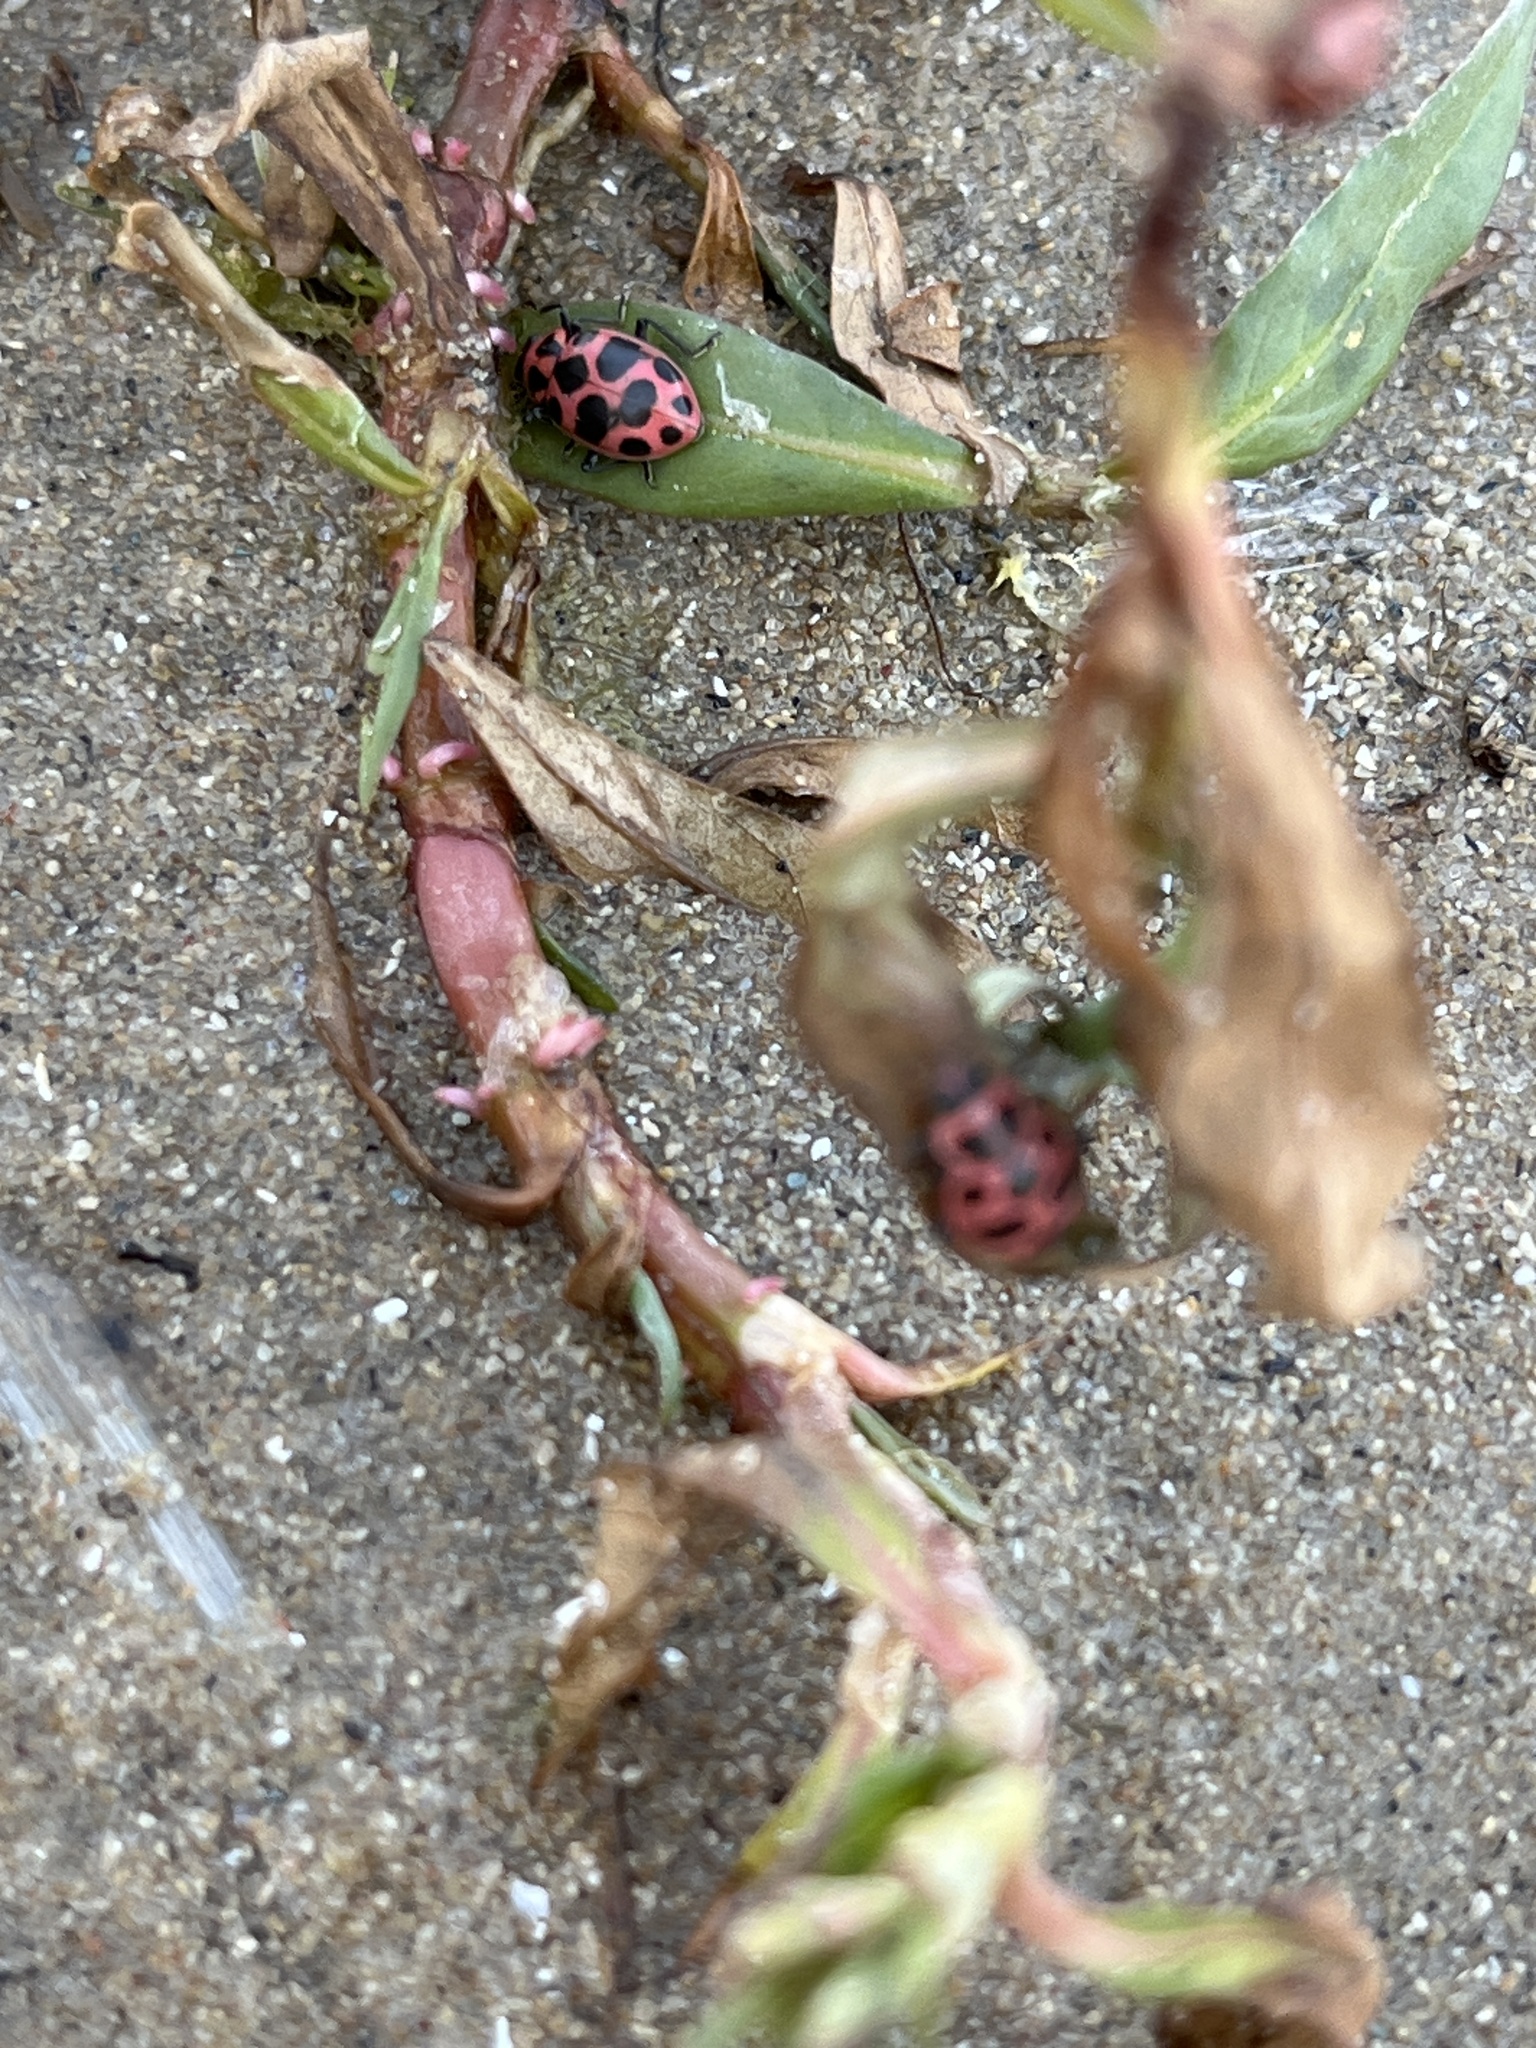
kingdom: Animalia
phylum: Arthropoda
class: Insecta
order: Coleoptera
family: Coccinellidae
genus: Coleomegilla
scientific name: Coleomegilla maculata
